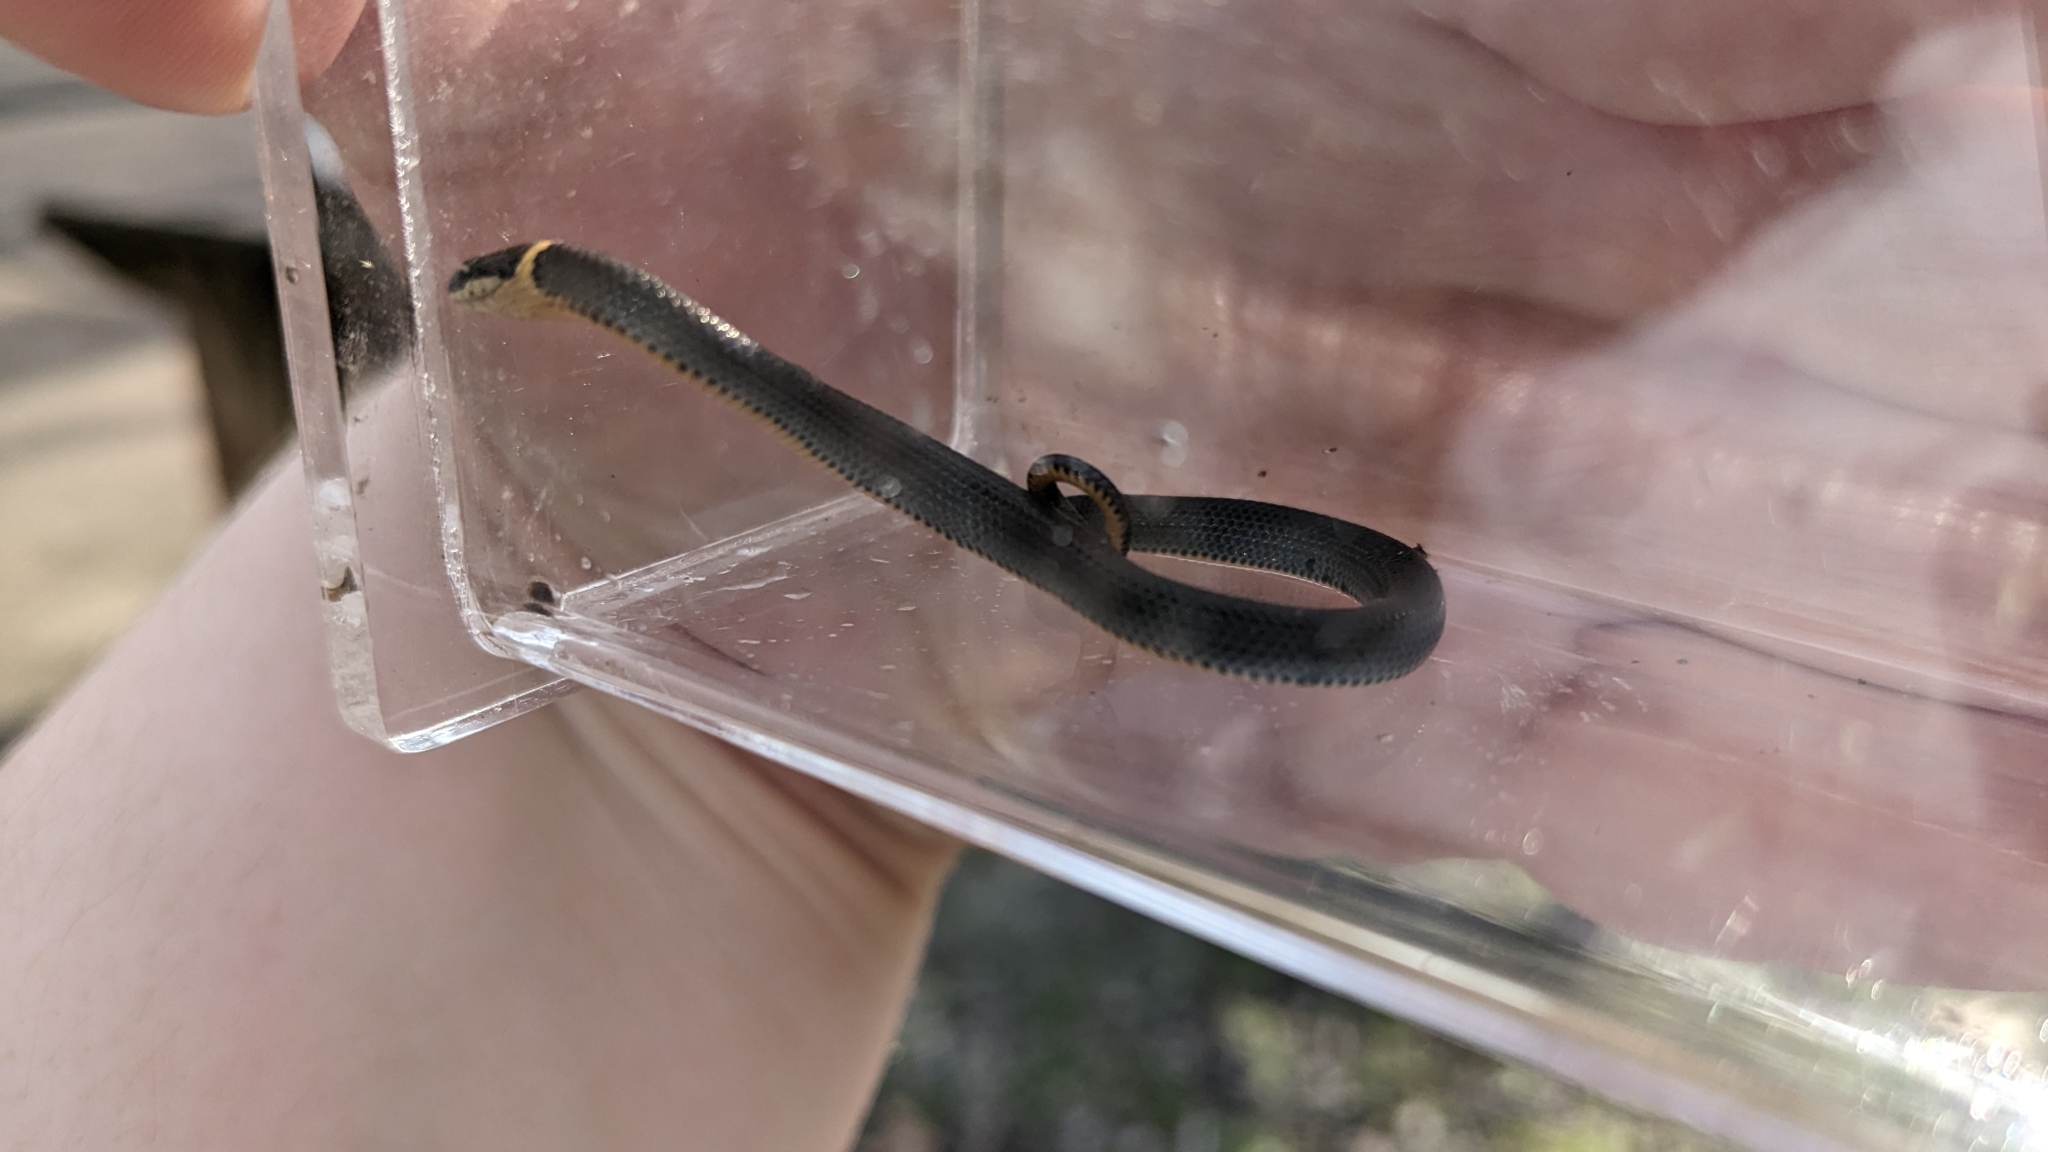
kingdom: Animalia
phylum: Chordata
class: Squamata
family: Colubridae
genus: Diadophis
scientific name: Diadophis punctatus
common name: Ringneck snake
